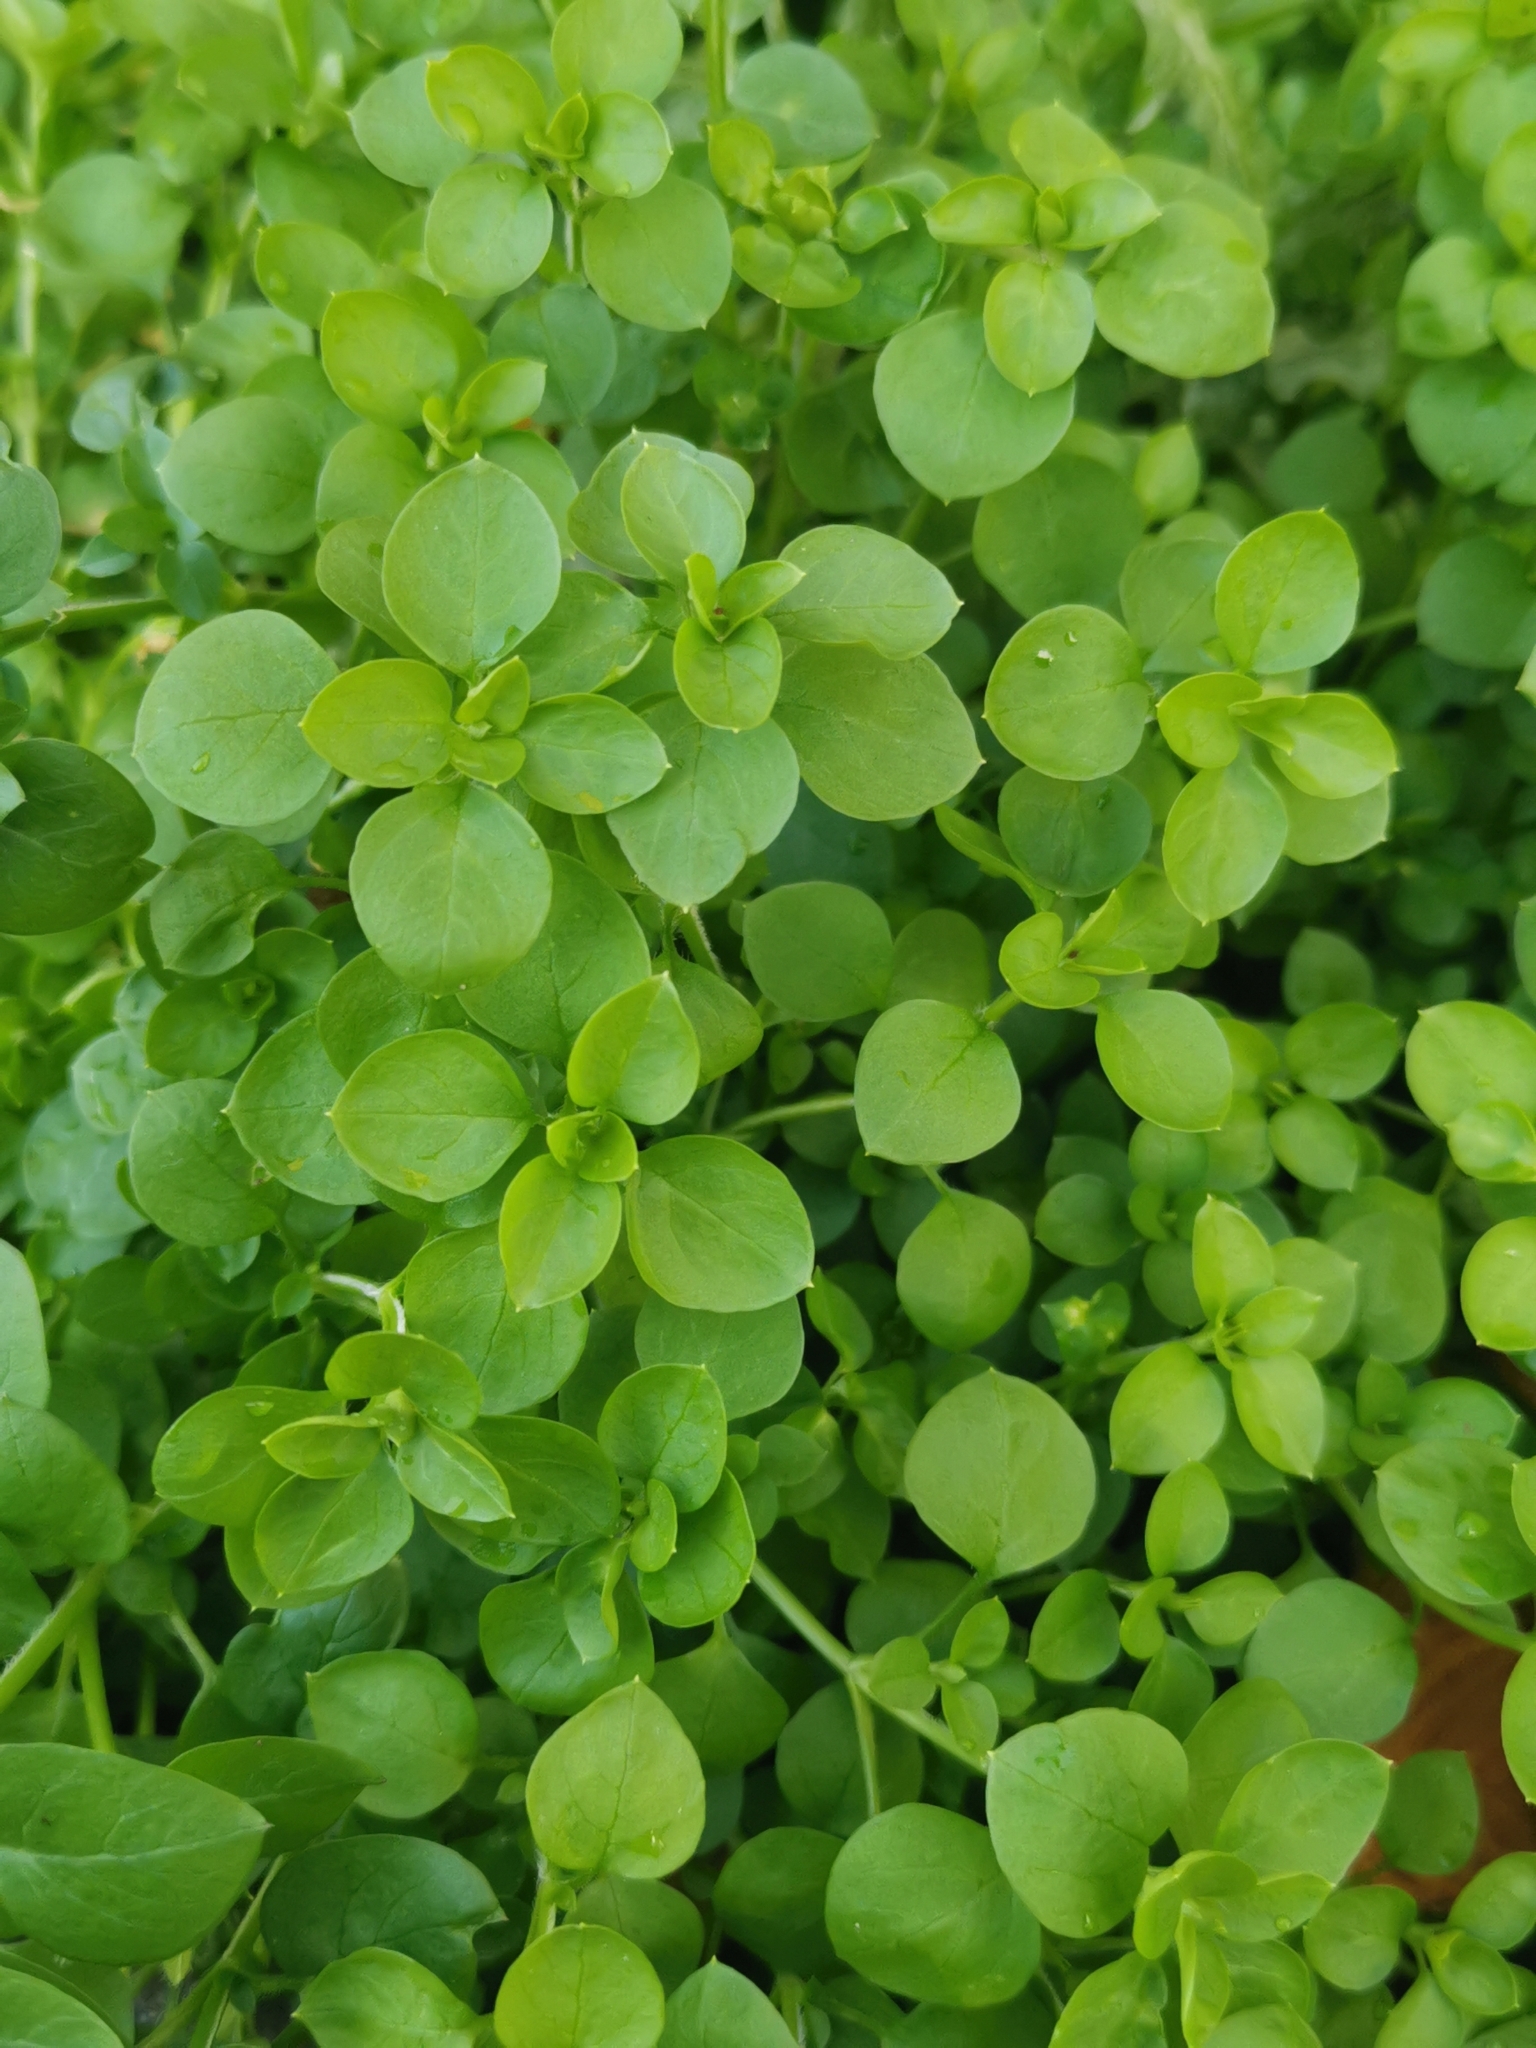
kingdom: Plantae
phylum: Tracheophyta
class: Magnoliopsida
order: Caryophyllales
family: Caryophyllaceae
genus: Stellaria
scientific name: Stellaria media
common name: Common chickweed
